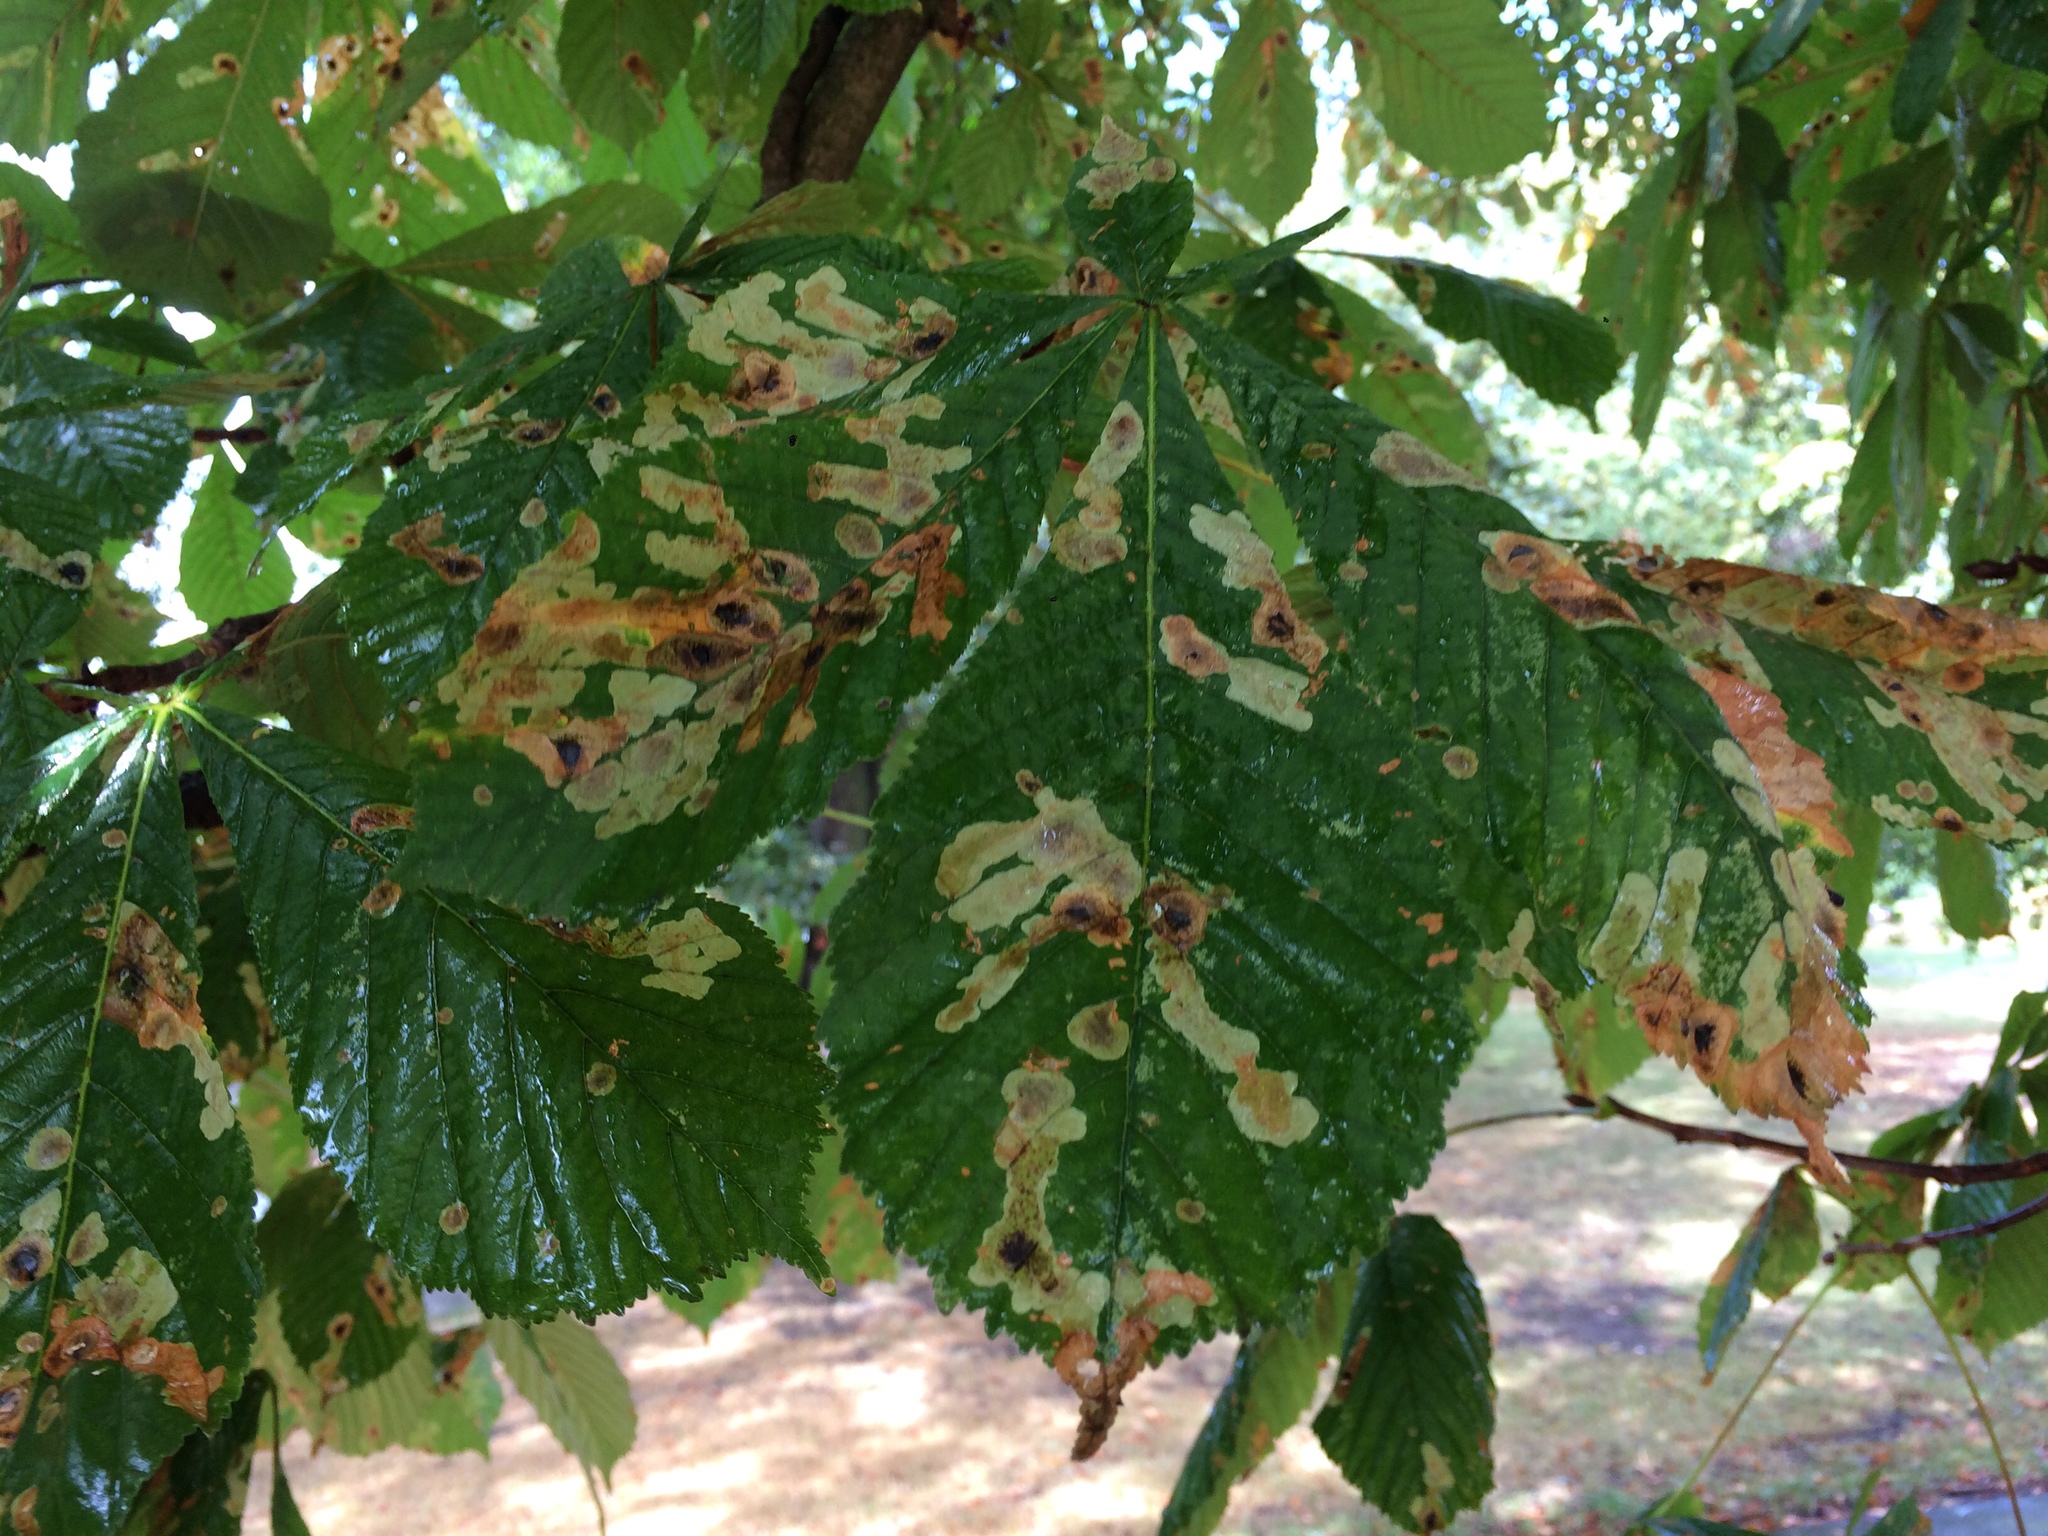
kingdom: Animalia
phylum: Arthropoda
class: Insecta
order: Lepidoptera
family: Gracillariidae
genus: Cameraria
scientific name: Cameraria ohridella
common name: Horse-chestnut leaf-miner
